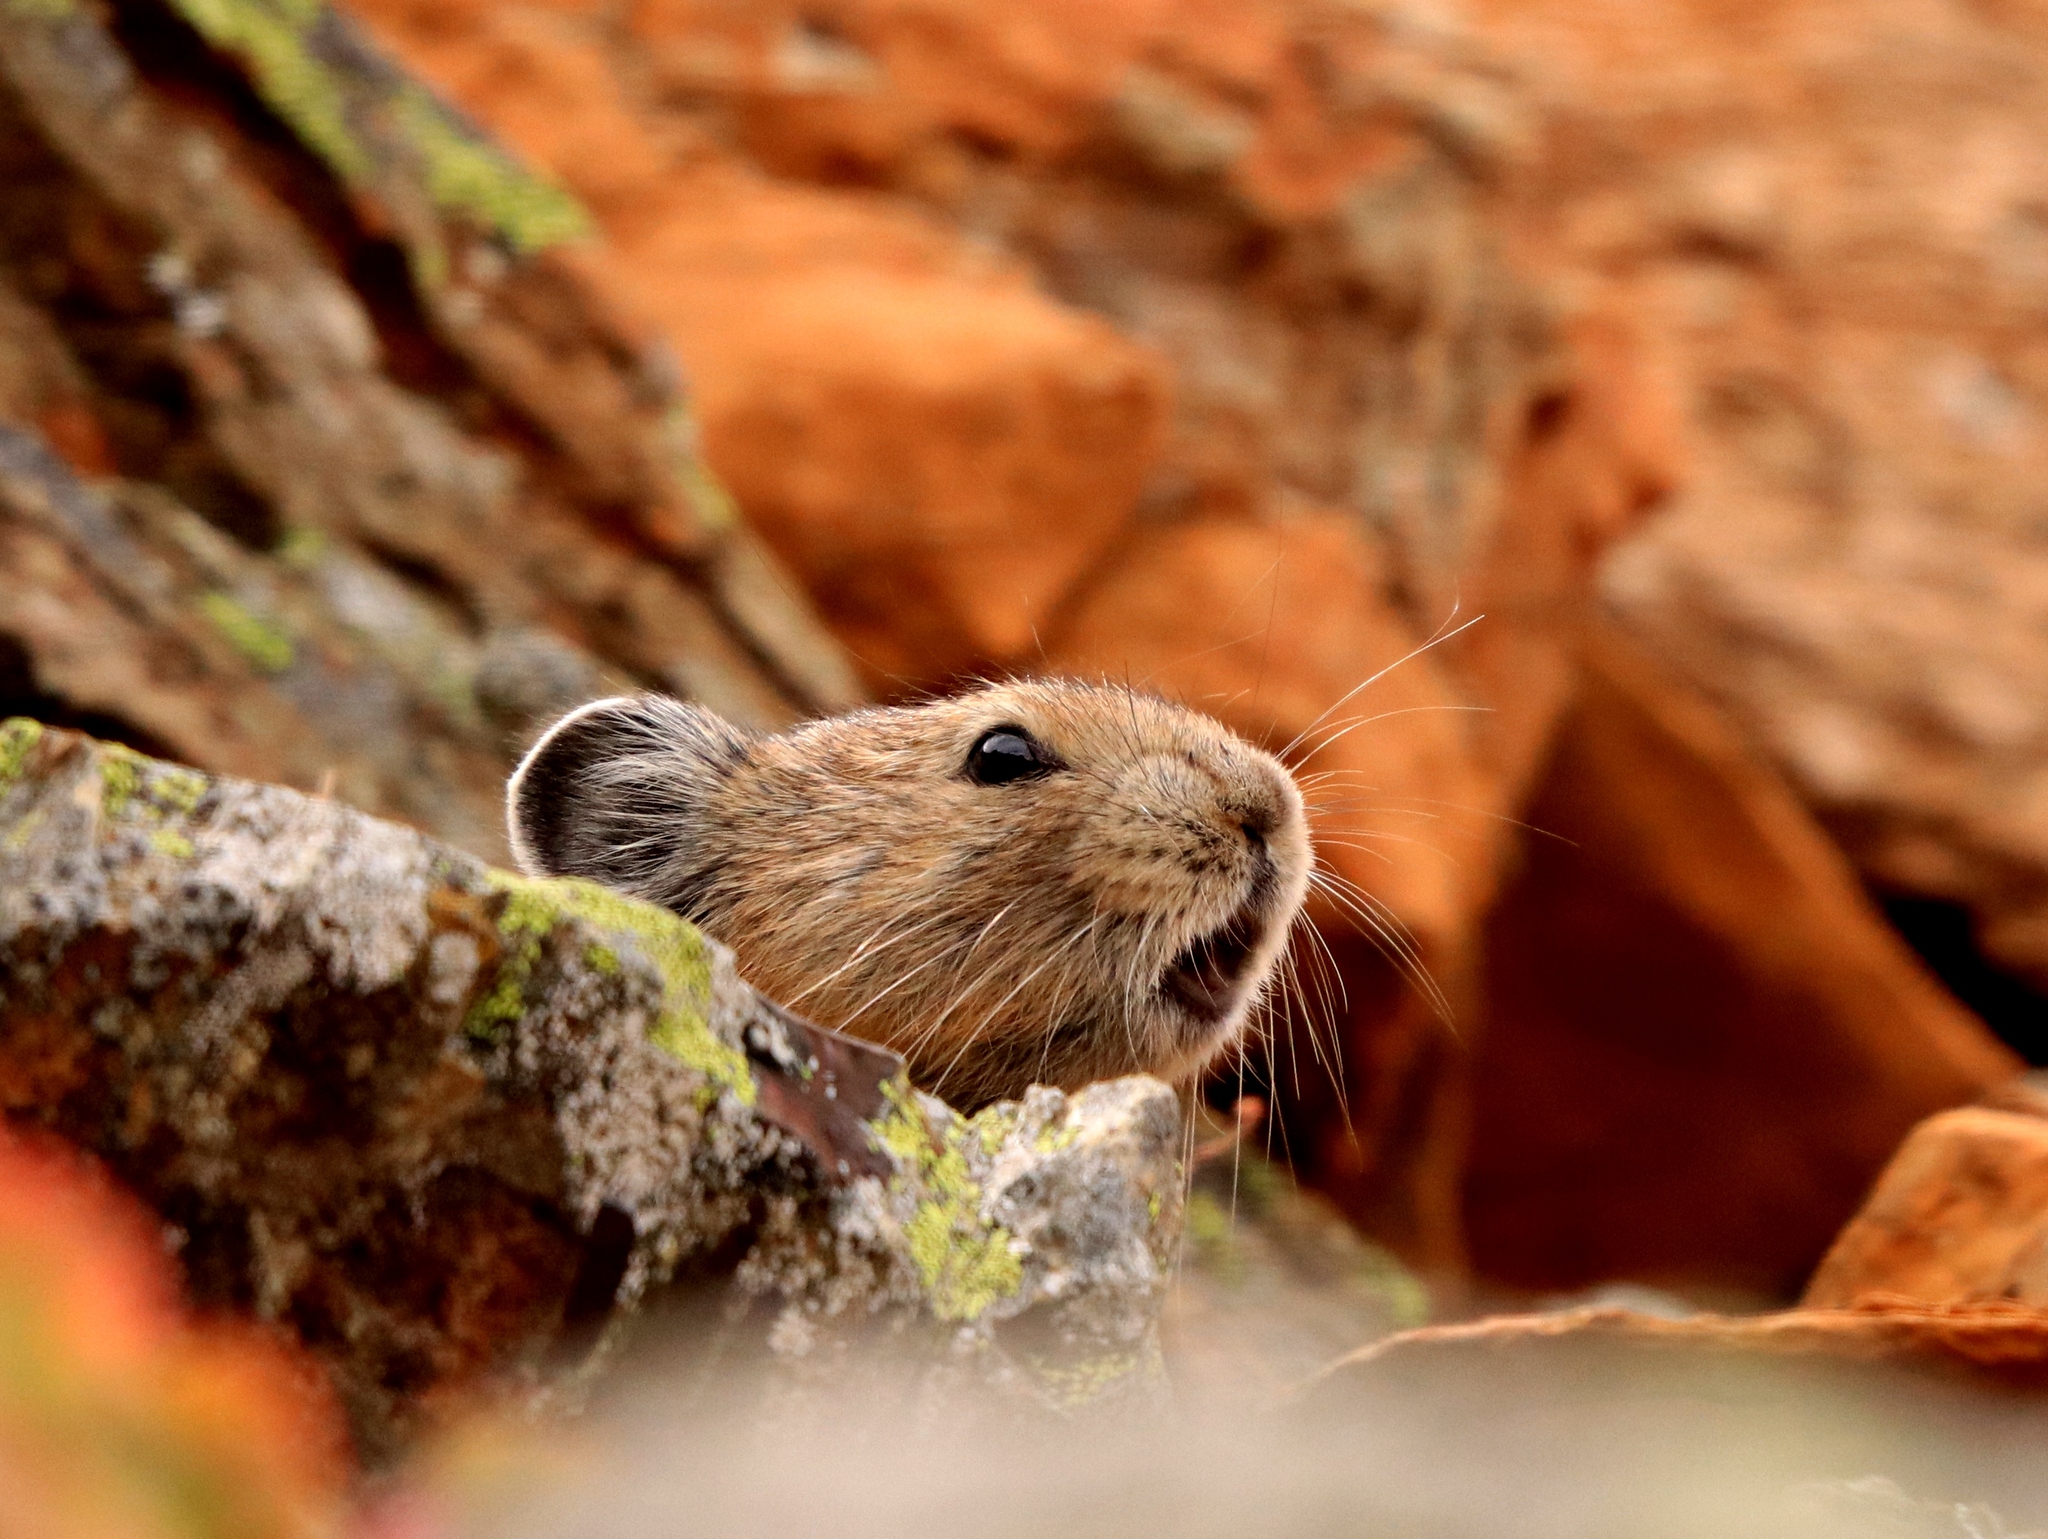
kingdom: Animalia
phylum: Chordata
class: Mammalia
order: Lagomorpha
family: Ochotonidae
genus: Ochotona
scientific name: Ochotona princeps
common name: American pika
